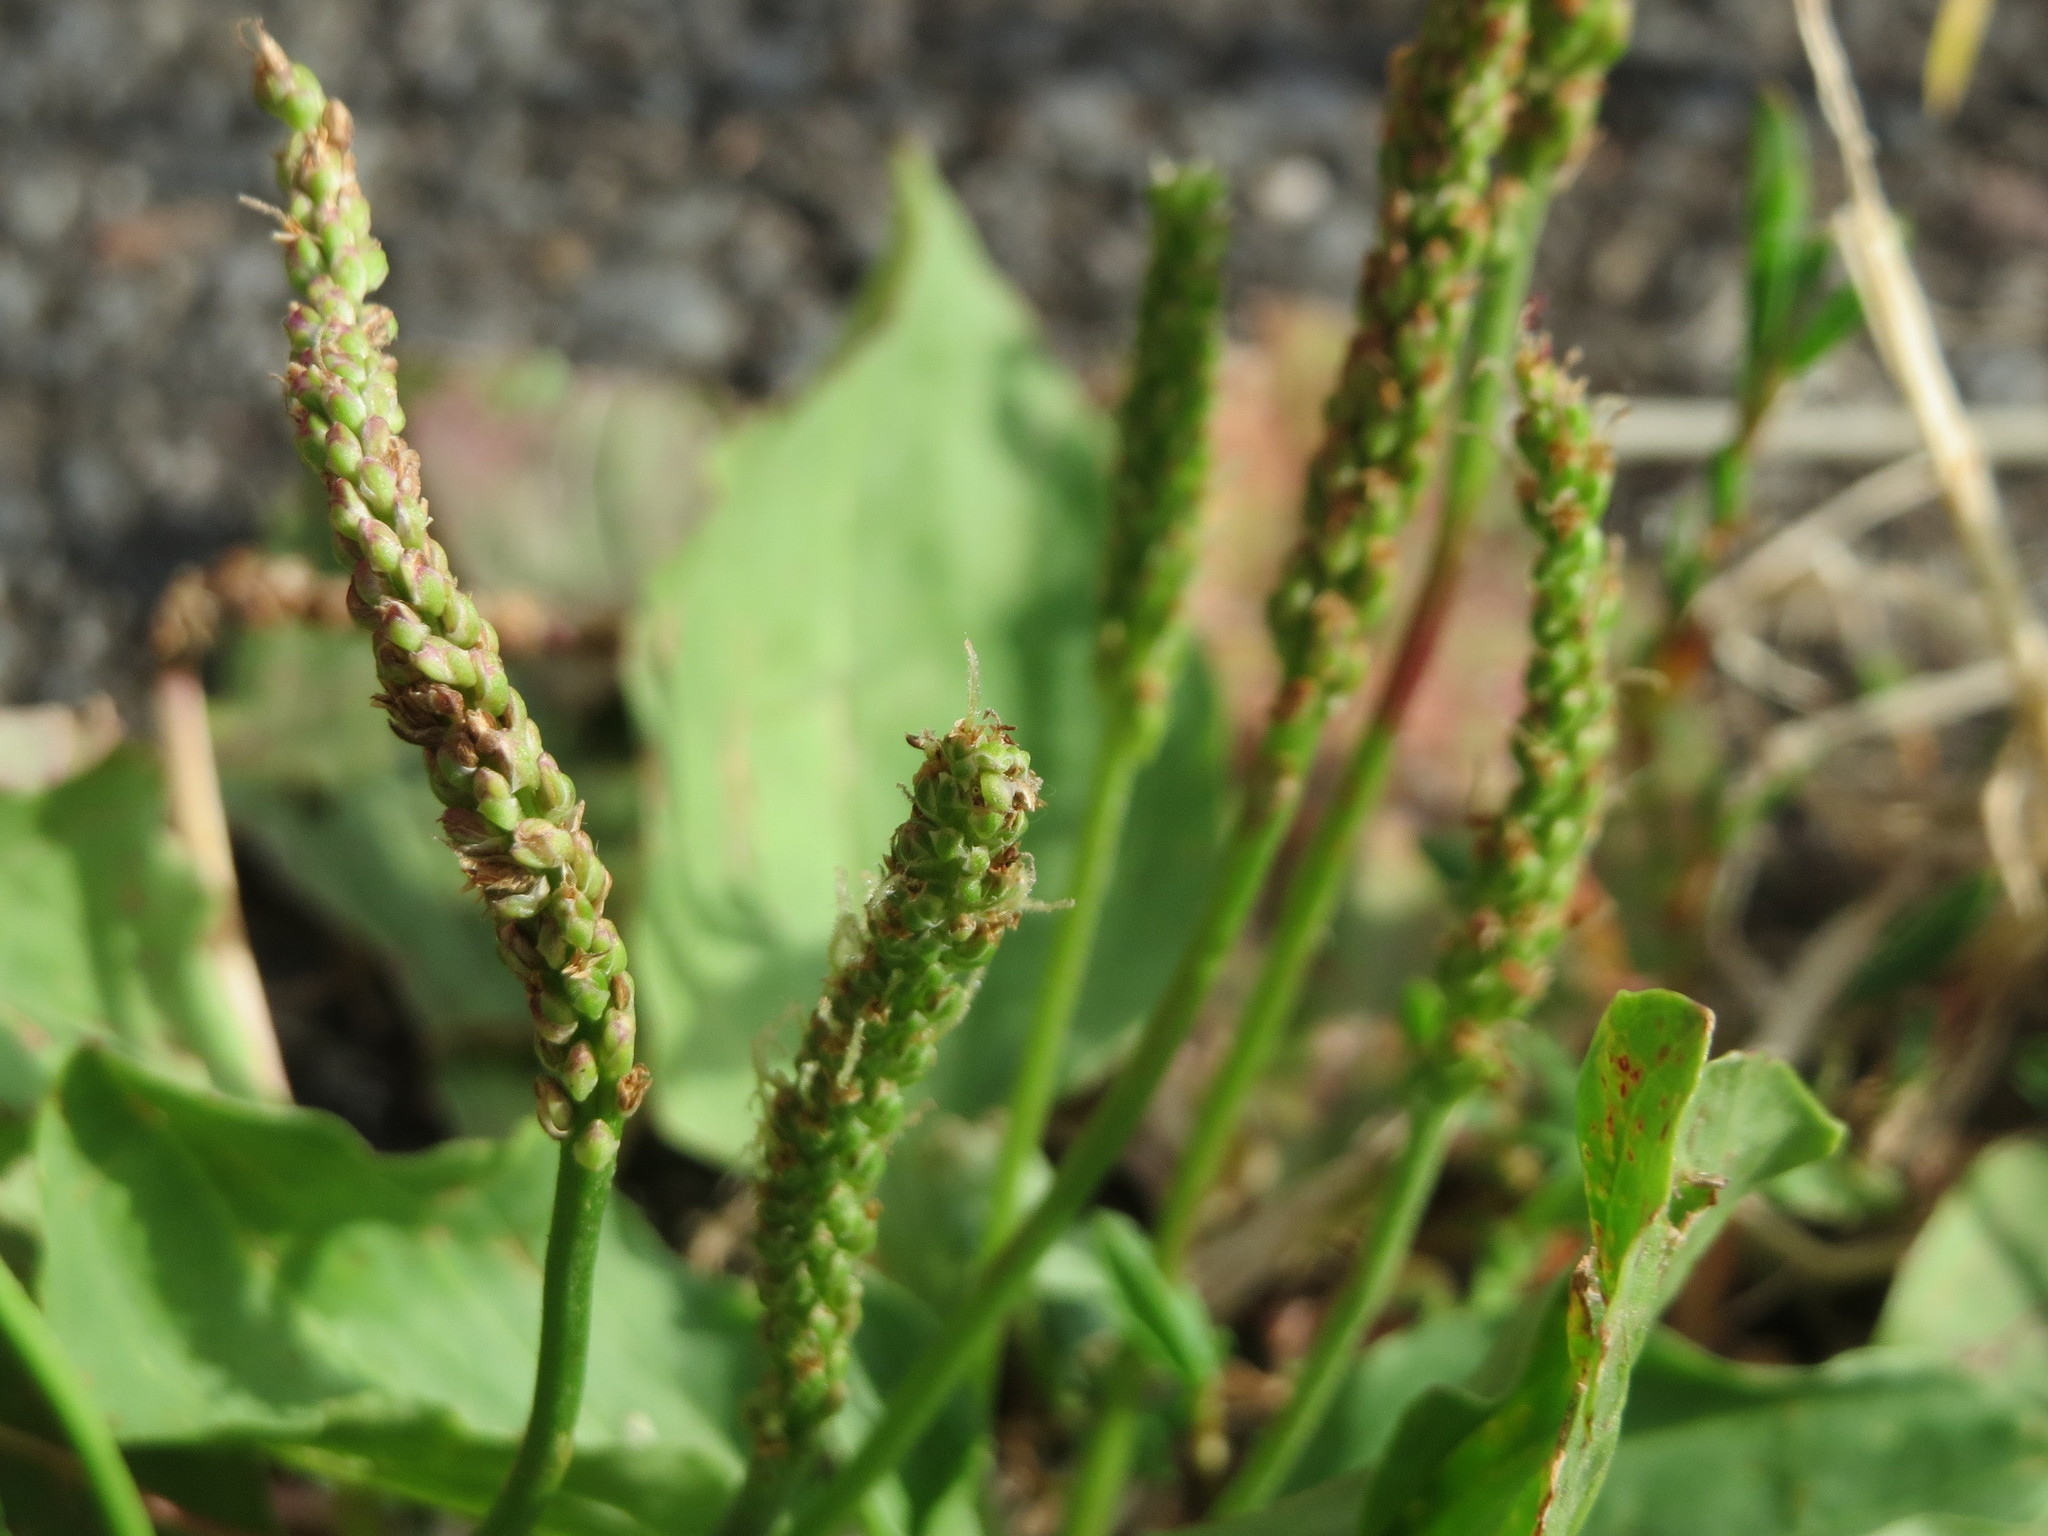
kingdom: Plantae
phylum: Tracheophyta
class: Magnoliopsida
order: Lamiales
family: Plantaginaceae
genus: Plantago
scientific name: Plantago major
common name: Common plantain
